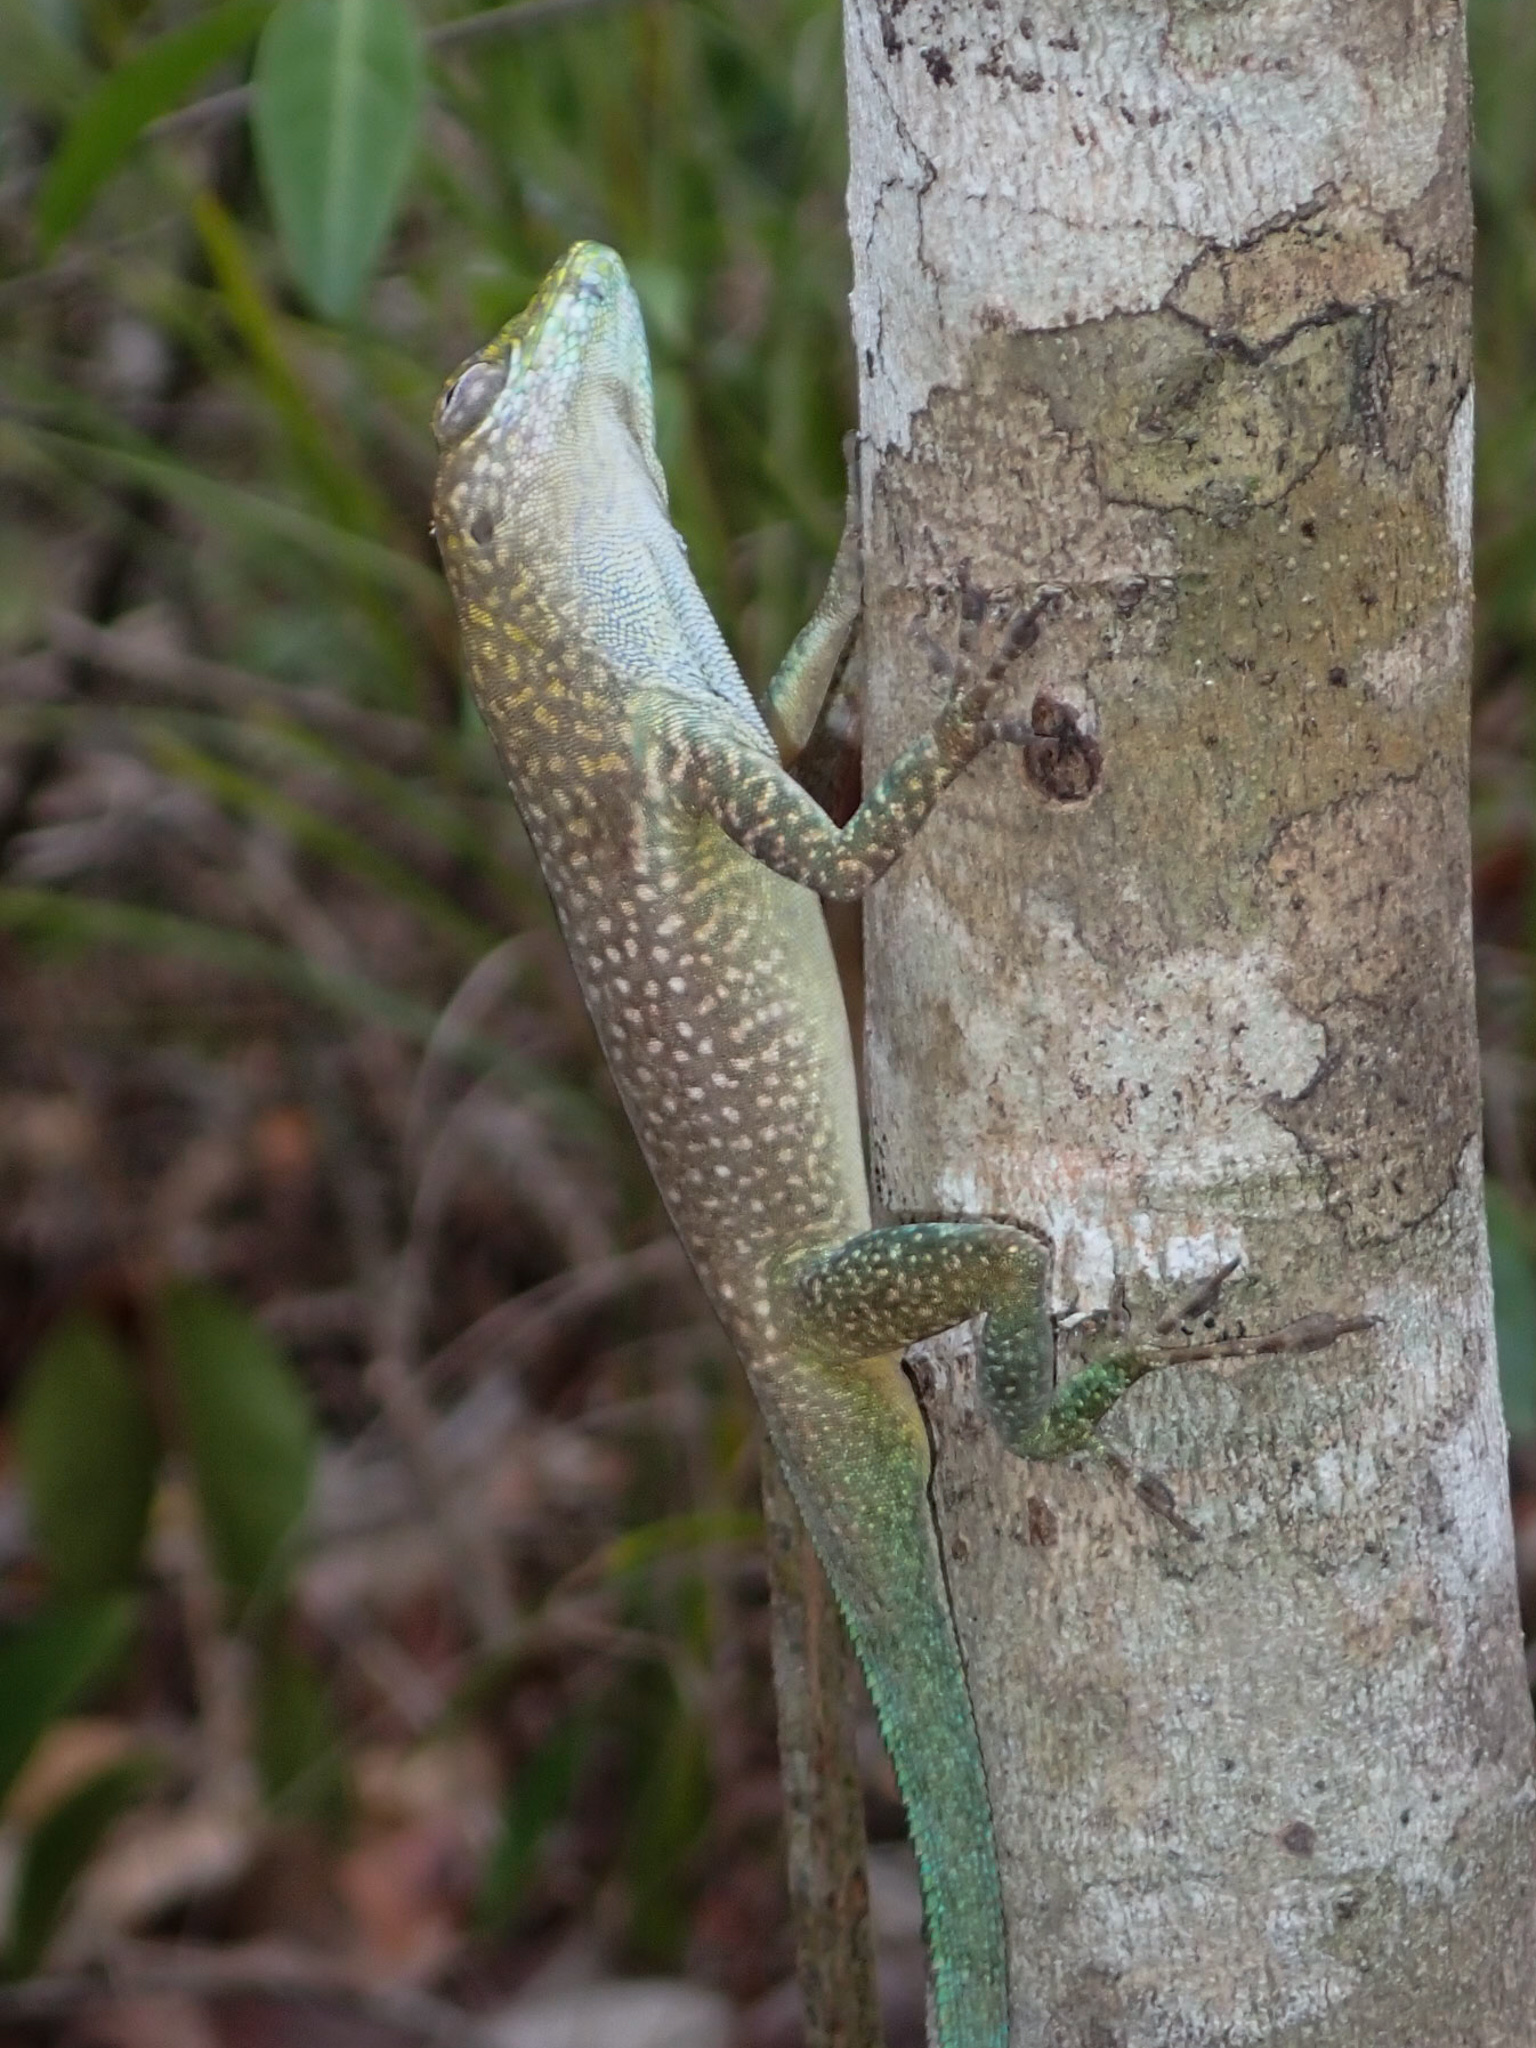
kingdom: Animalia
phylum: Chordata
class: Squamata
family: Dactyloidae
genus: Anolis
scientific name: Anolis conspersus
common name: Grand cayman anole
